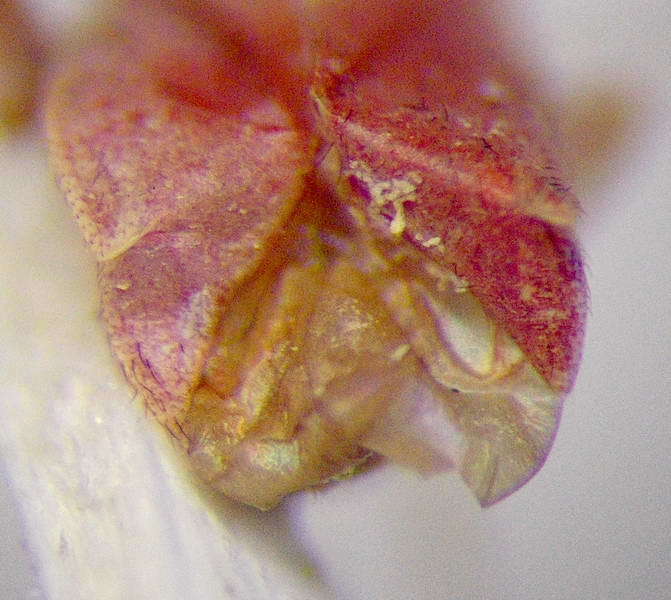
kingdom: Animalia
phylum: Arthropoda
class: Insecta
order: Hemiptera
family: Miridae
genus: Orthotylus
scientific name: Orthotylus rubidus
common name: Plant bug
